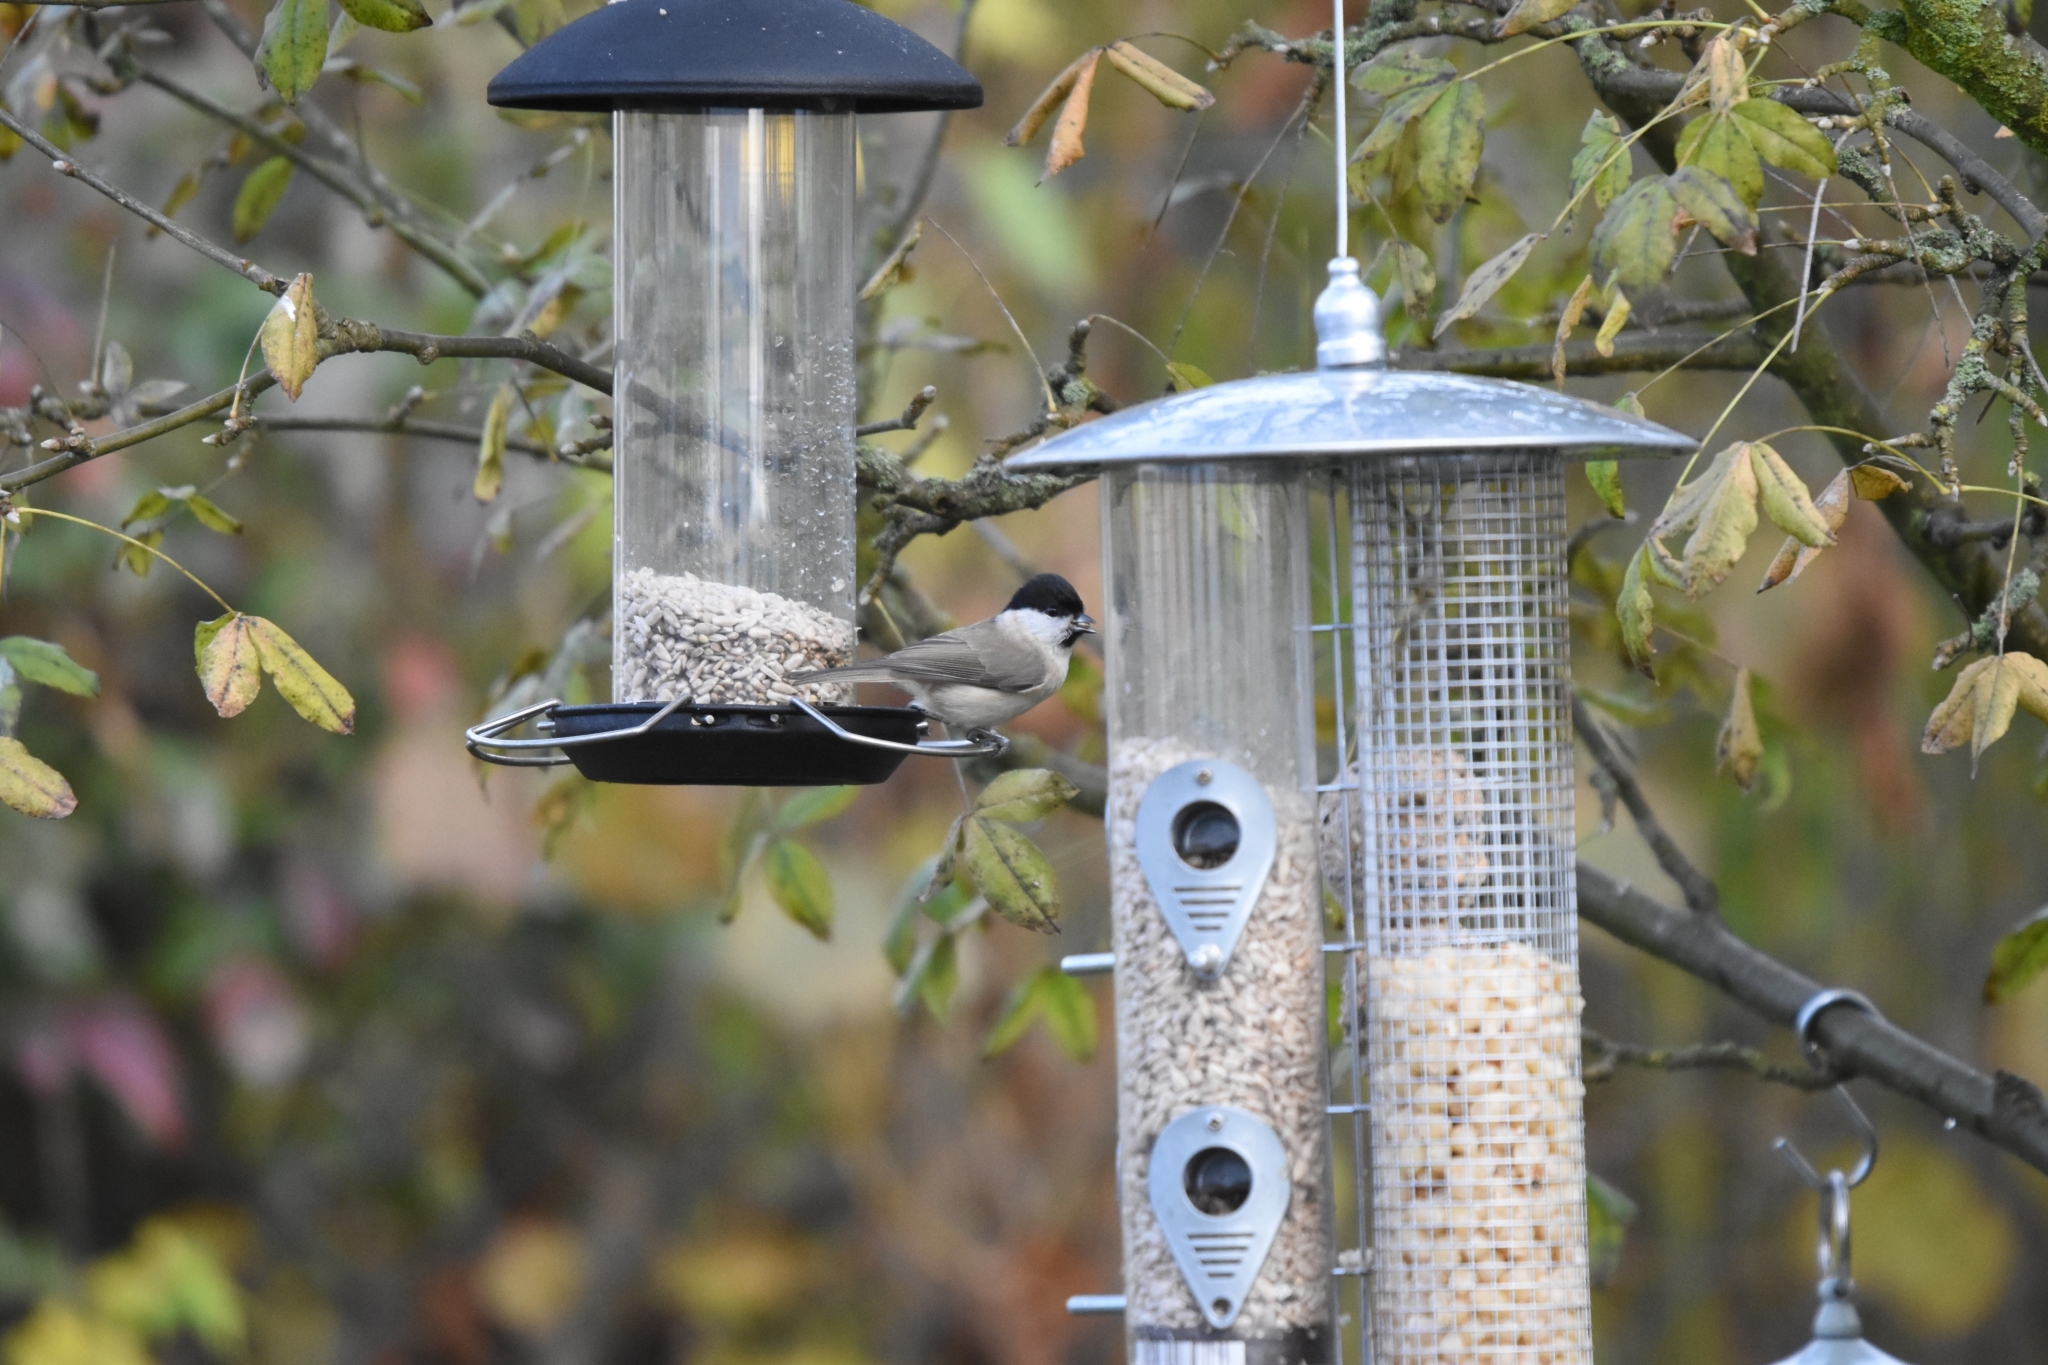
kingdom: Animalia
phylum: Chordata
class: Aves
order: Passeriformes
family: Paridae
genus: Poecile
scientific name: Poecile palustris
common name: Marsh tit
